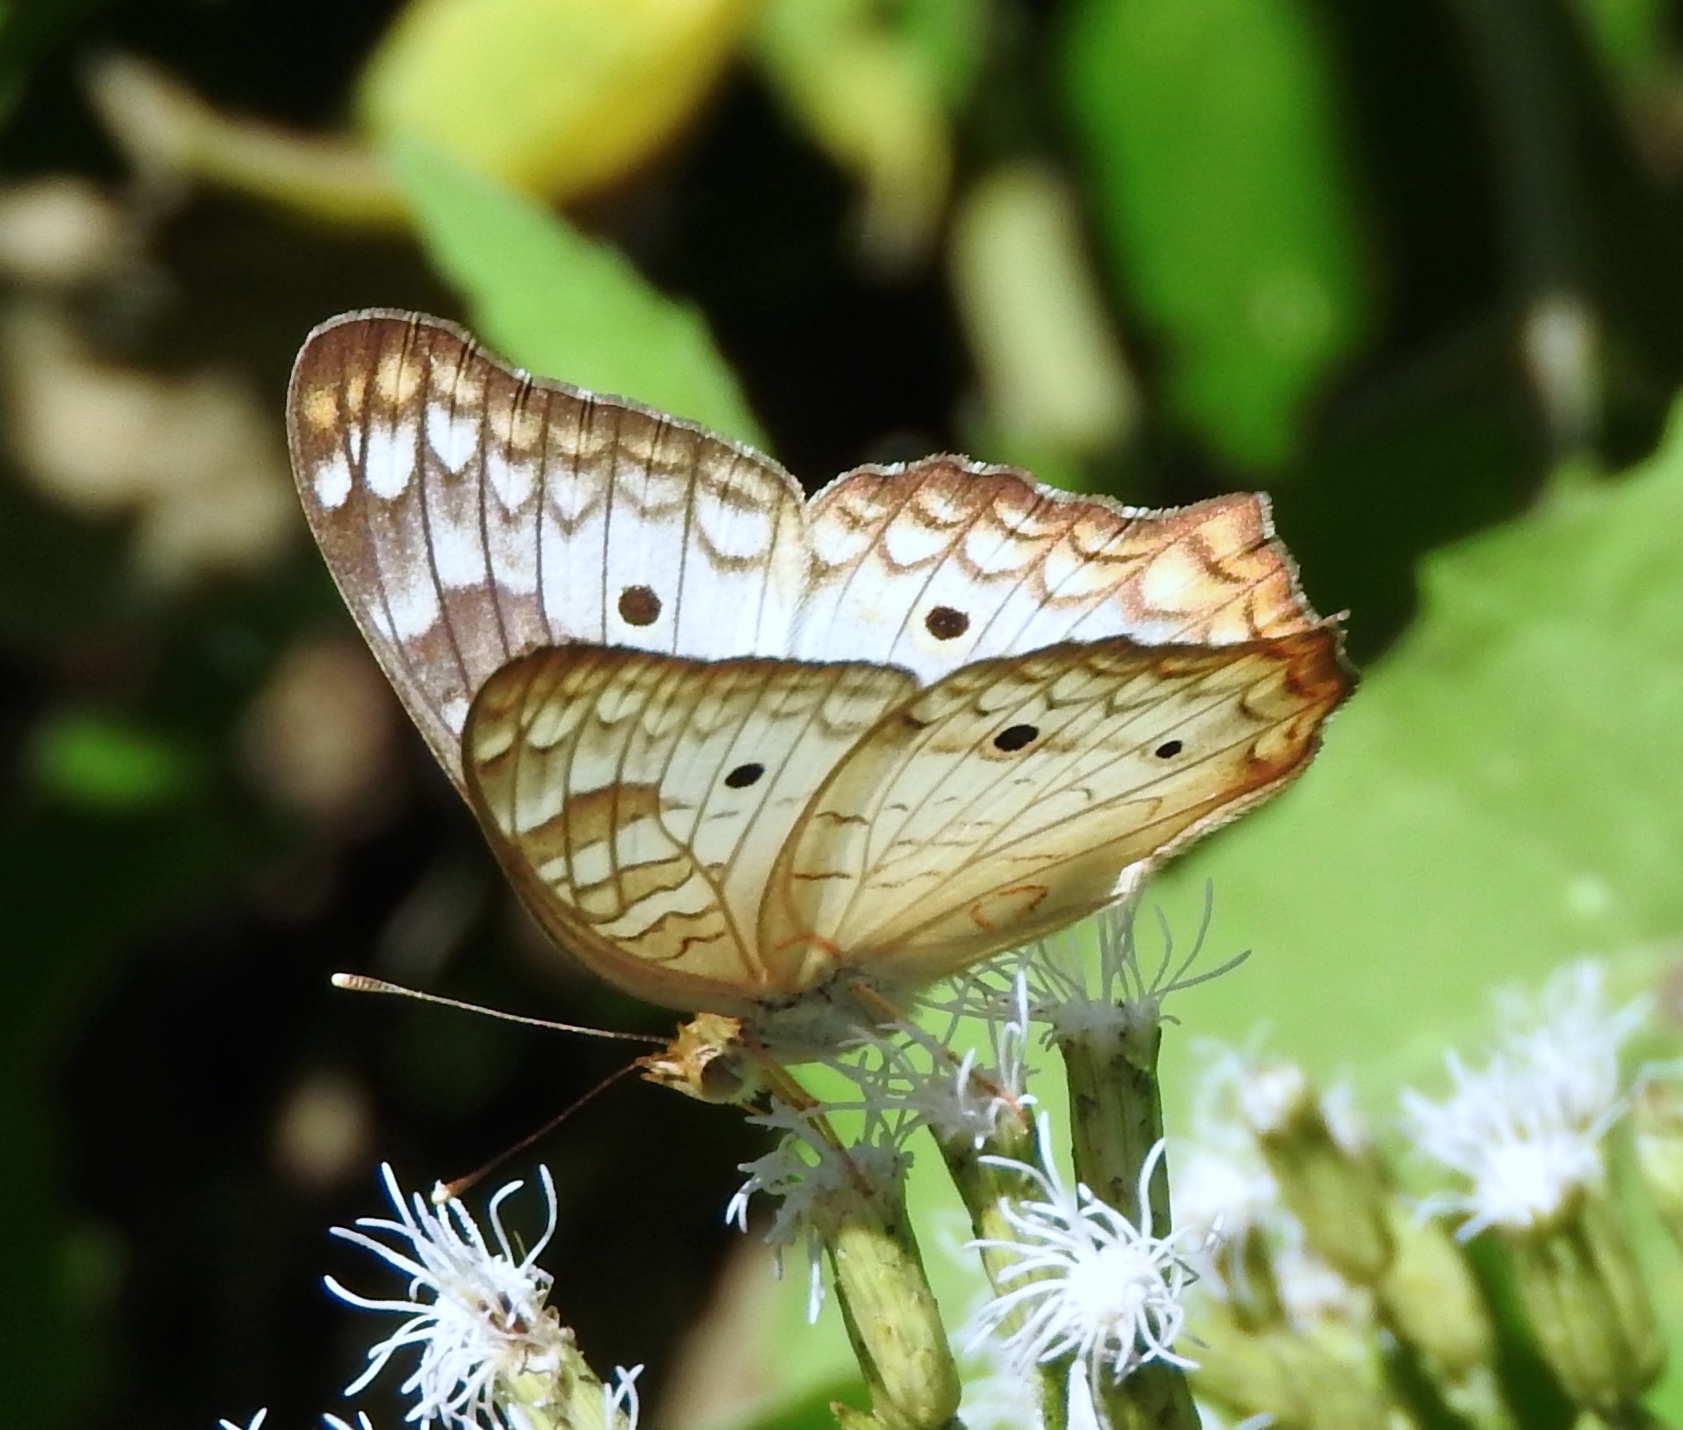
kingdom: Animalia
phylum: Arthropoda
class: Insecta
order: Lepidoptera
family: Nymphalidae
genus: Anartia
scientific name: Anartia jatrophae
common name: White peacock
